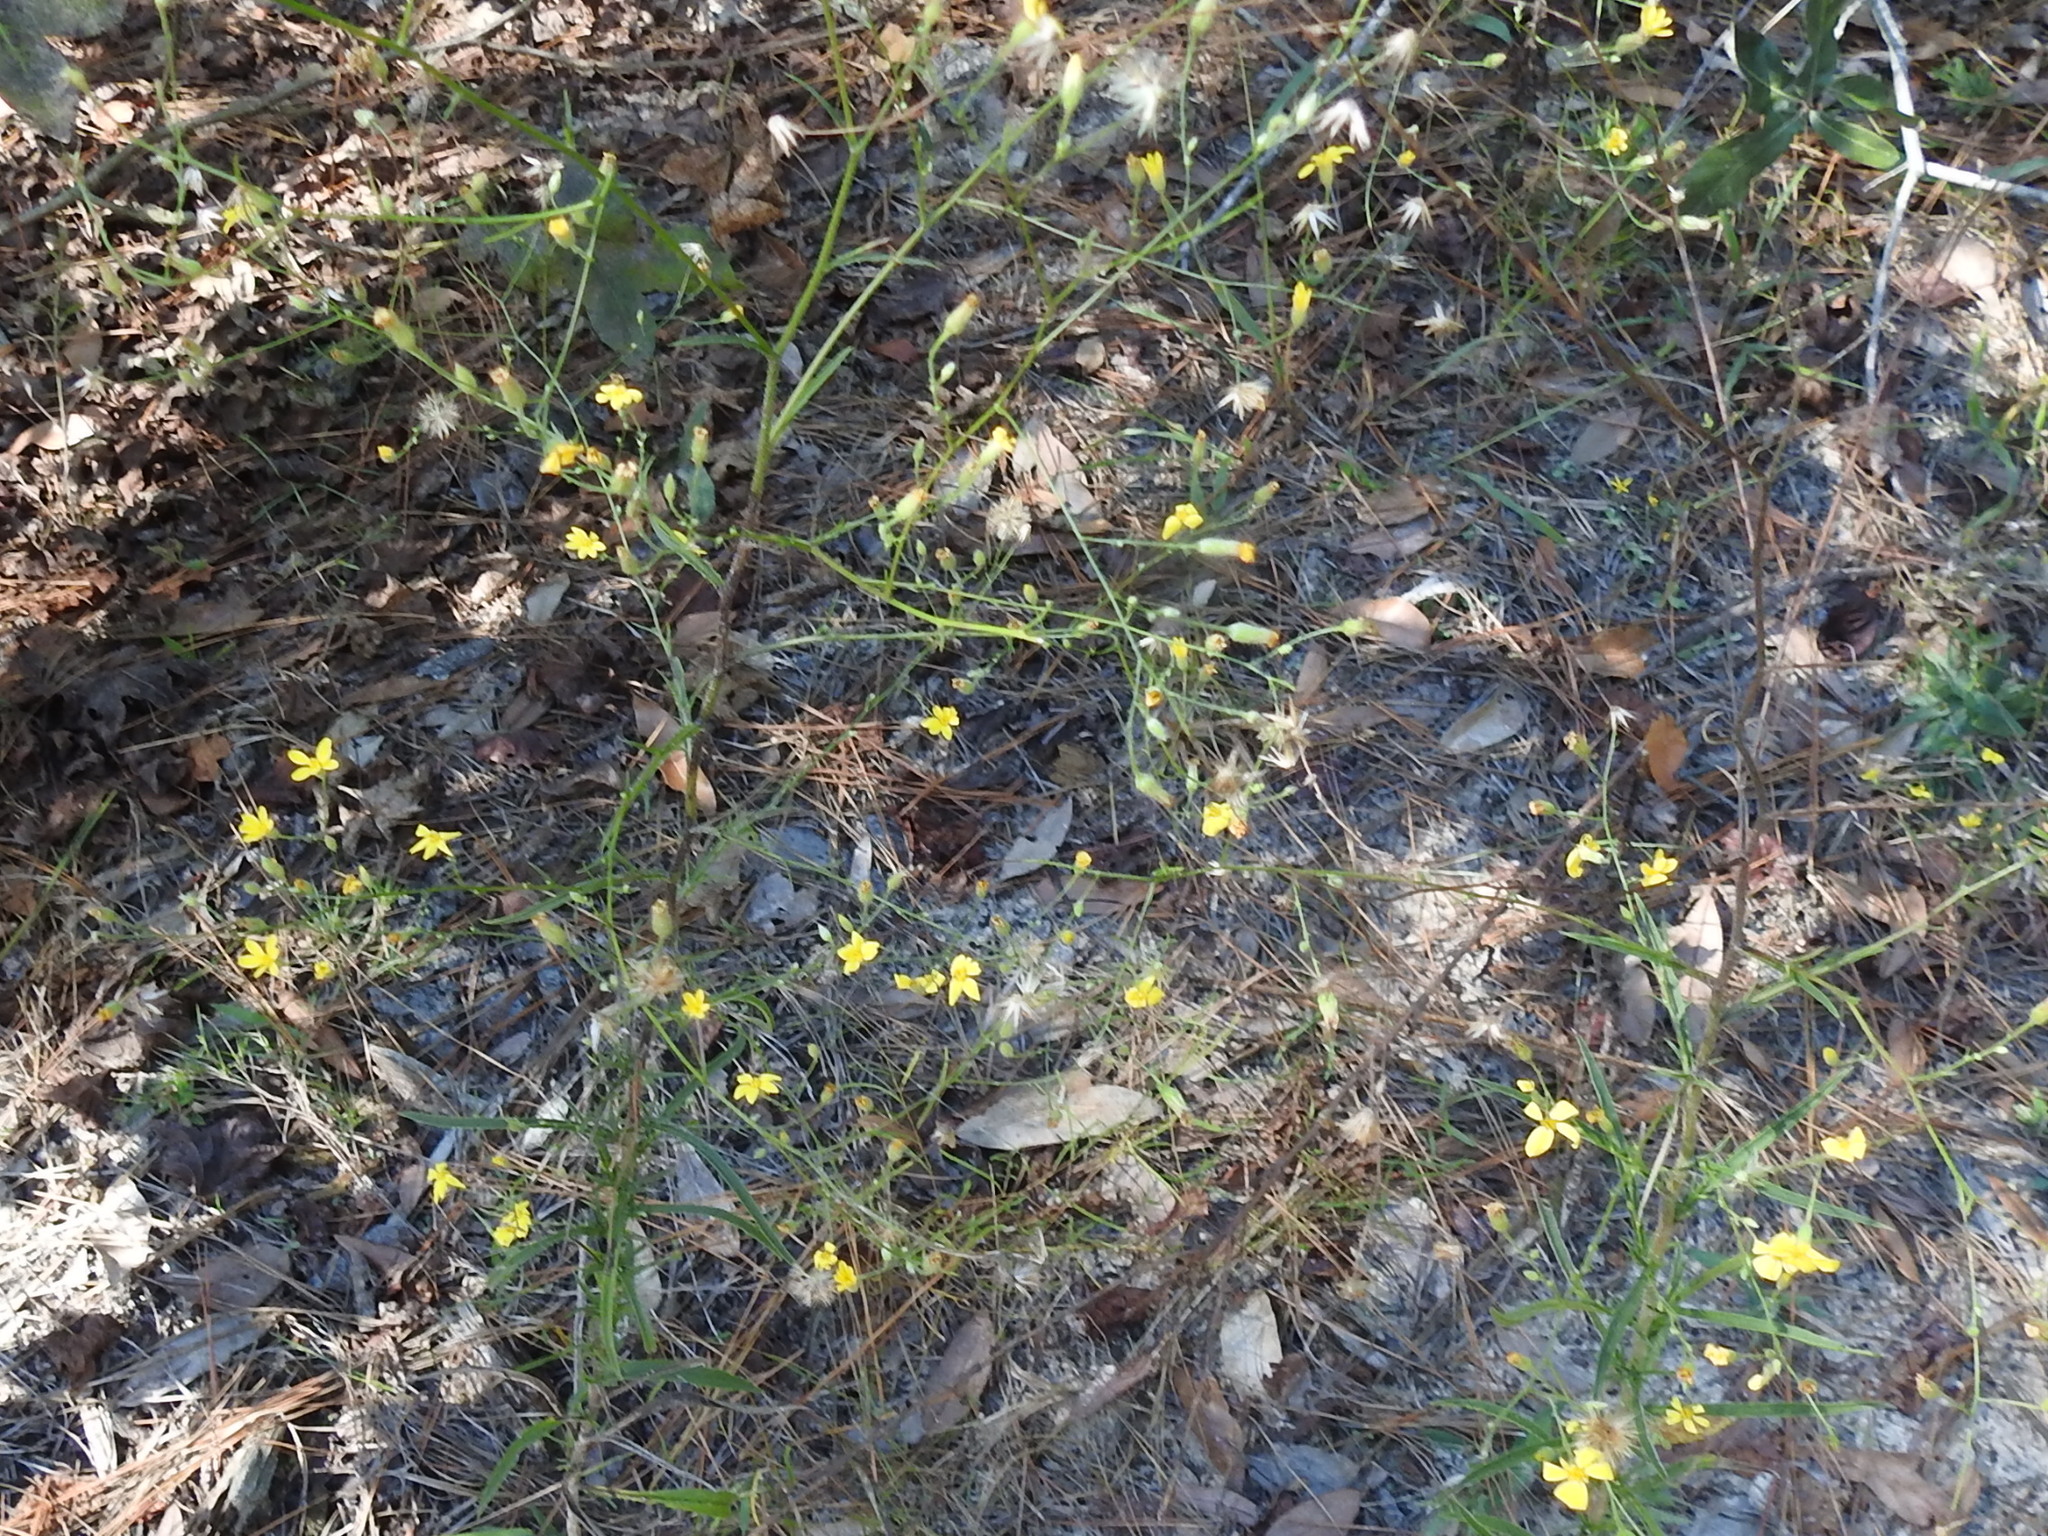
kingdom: Plantae
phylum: Tracheophyta
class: Magnoliopsida
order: Asterales
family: Asteraceae
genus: Croptilon
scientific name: Croptilon divaricatum
